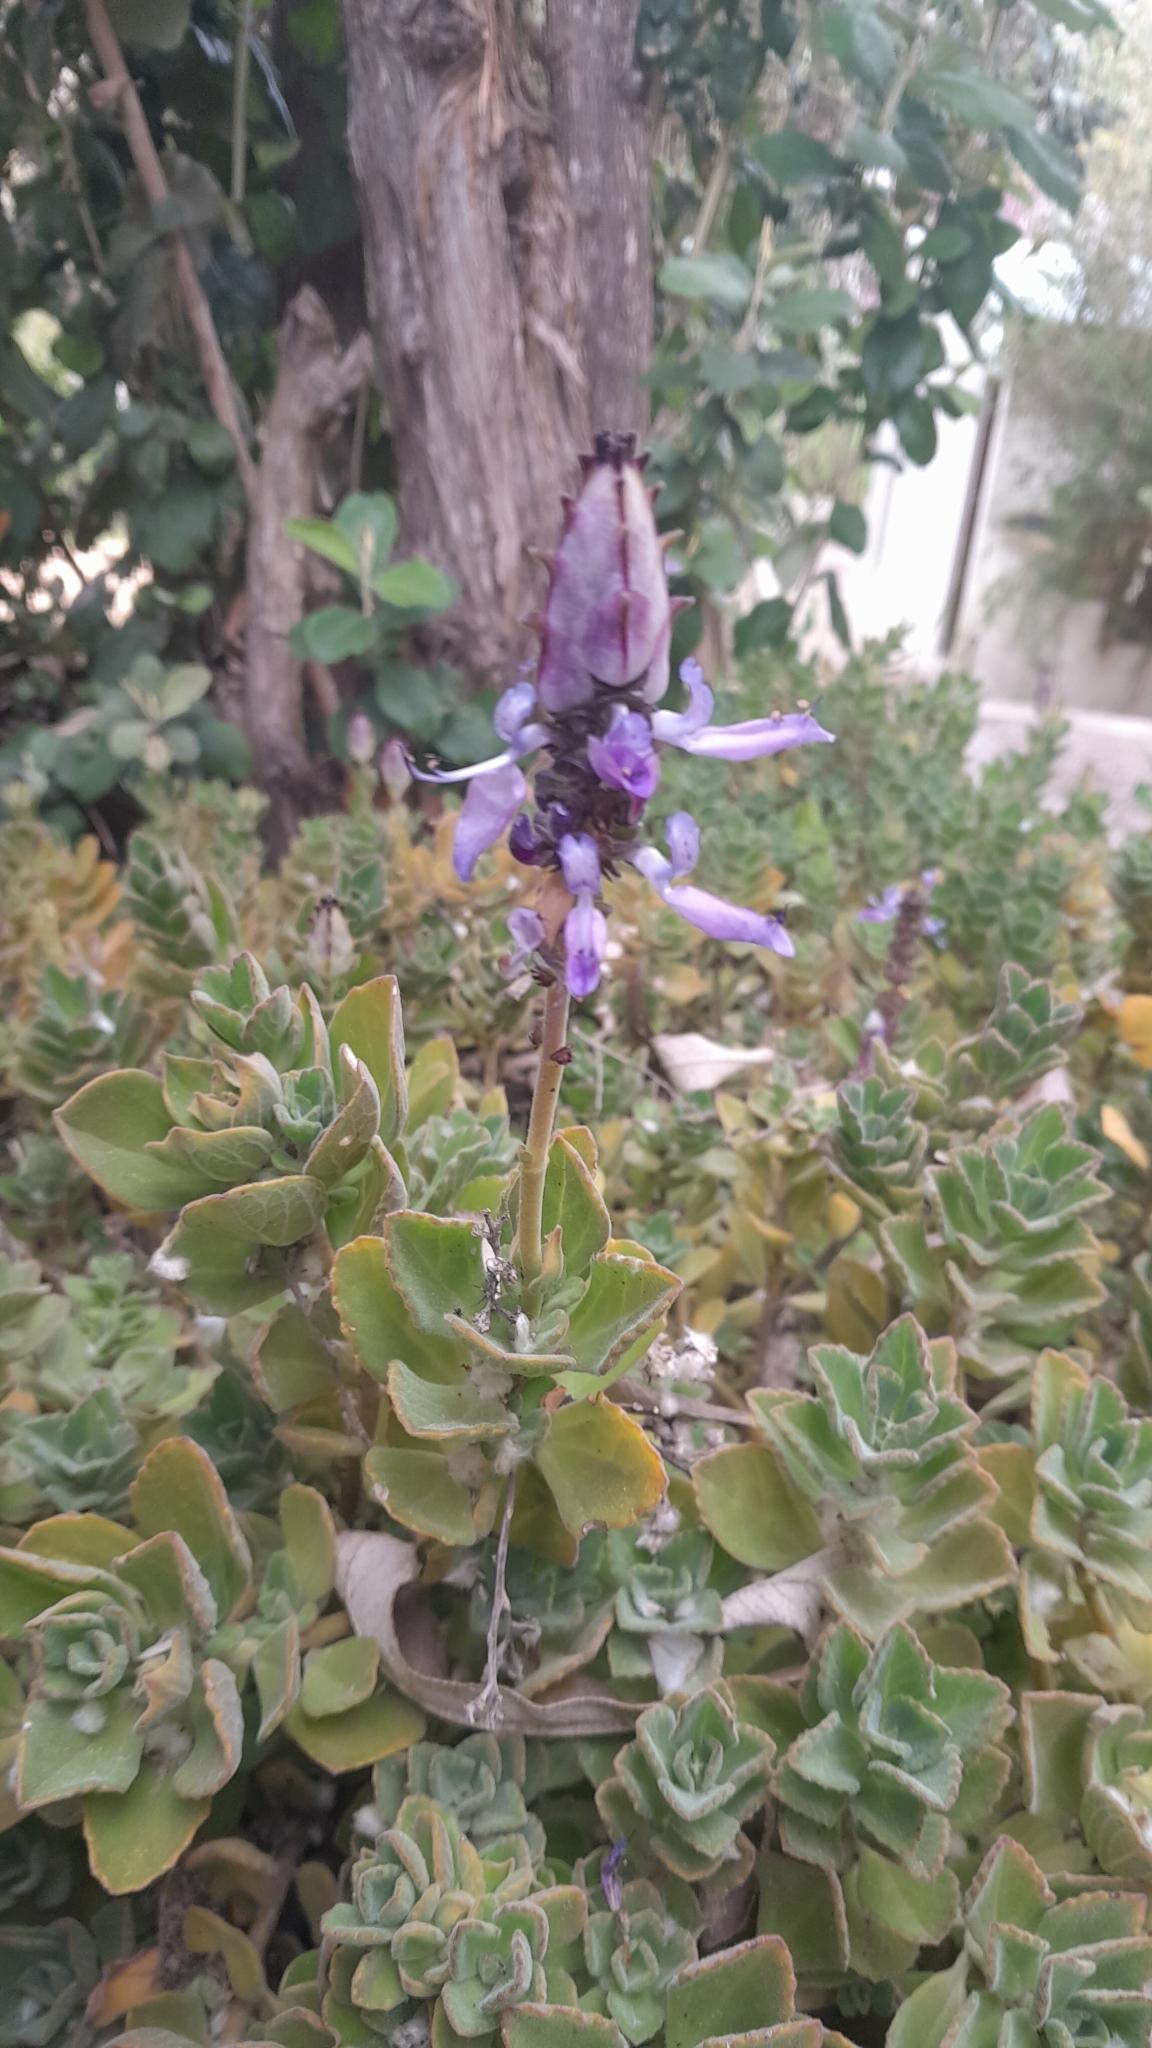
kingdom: Plantae
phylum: Tracheophyta
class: Magnoliopsida
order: Lamiales
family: Lamiaceae
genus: Coleus
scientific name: Coleus neochilus
